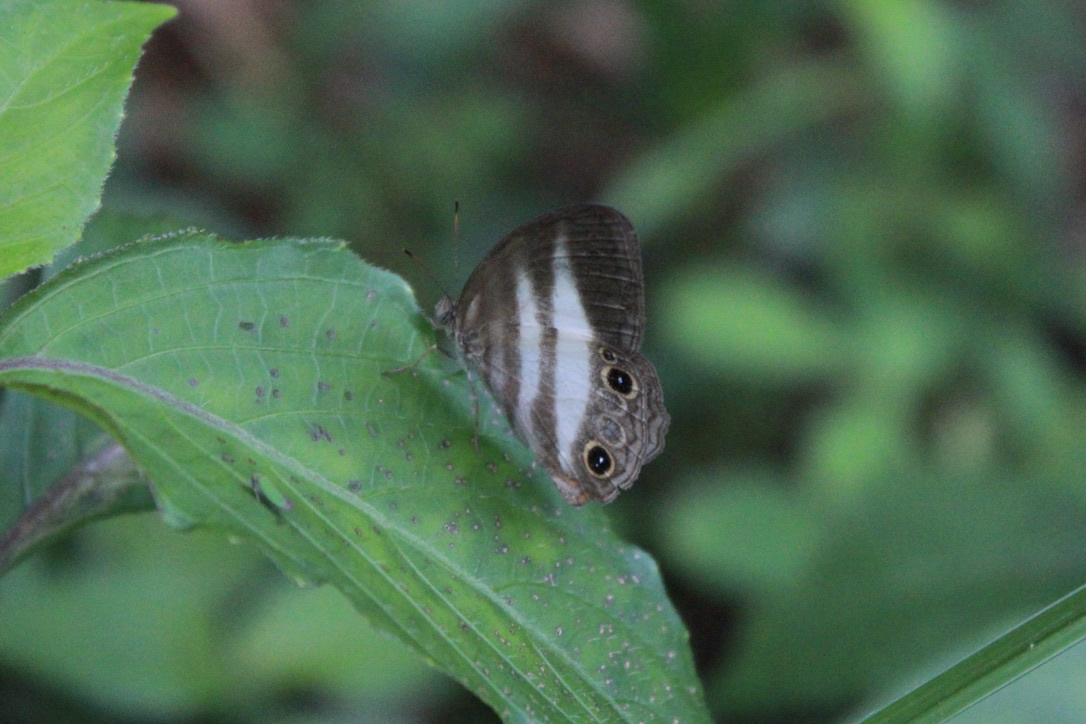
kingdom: Animalia
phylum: Arthropoda
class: Insecta
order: Lepidoptera
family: Nymphalidae
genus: Pareuptychia
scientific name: Pareuptychia hesione
